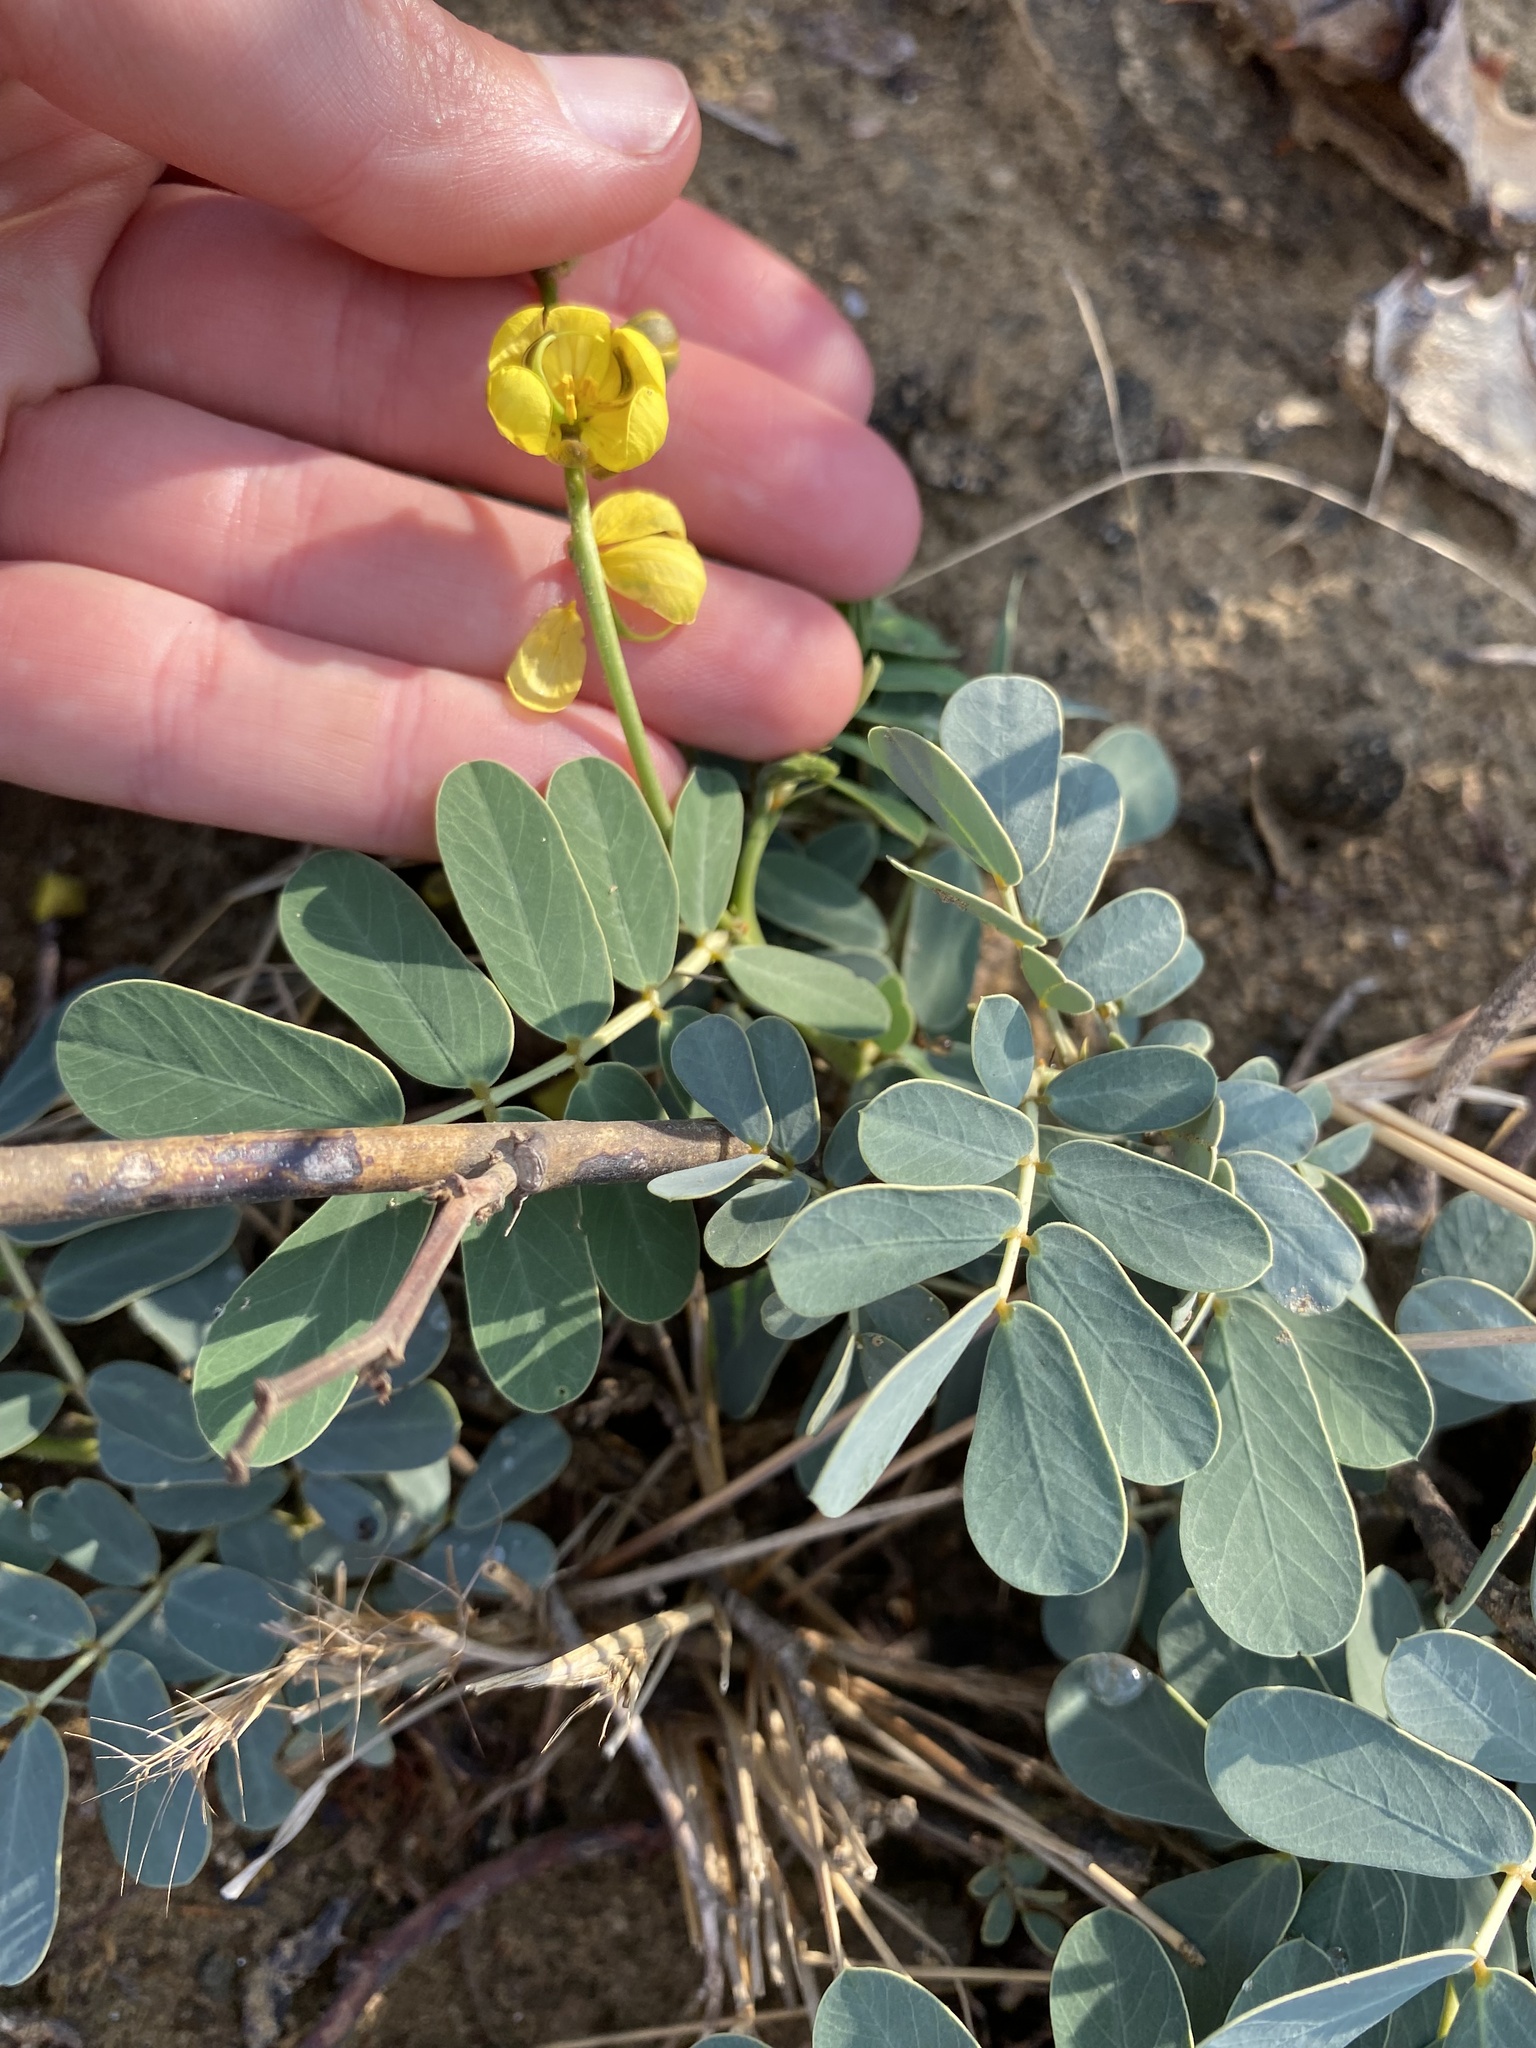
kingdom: Plantae
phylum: Tracheophyta
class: Magnoliopsida
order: Fabales
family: Fabaceae
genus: Senna
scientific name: Senna italica
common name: Port royal senna
